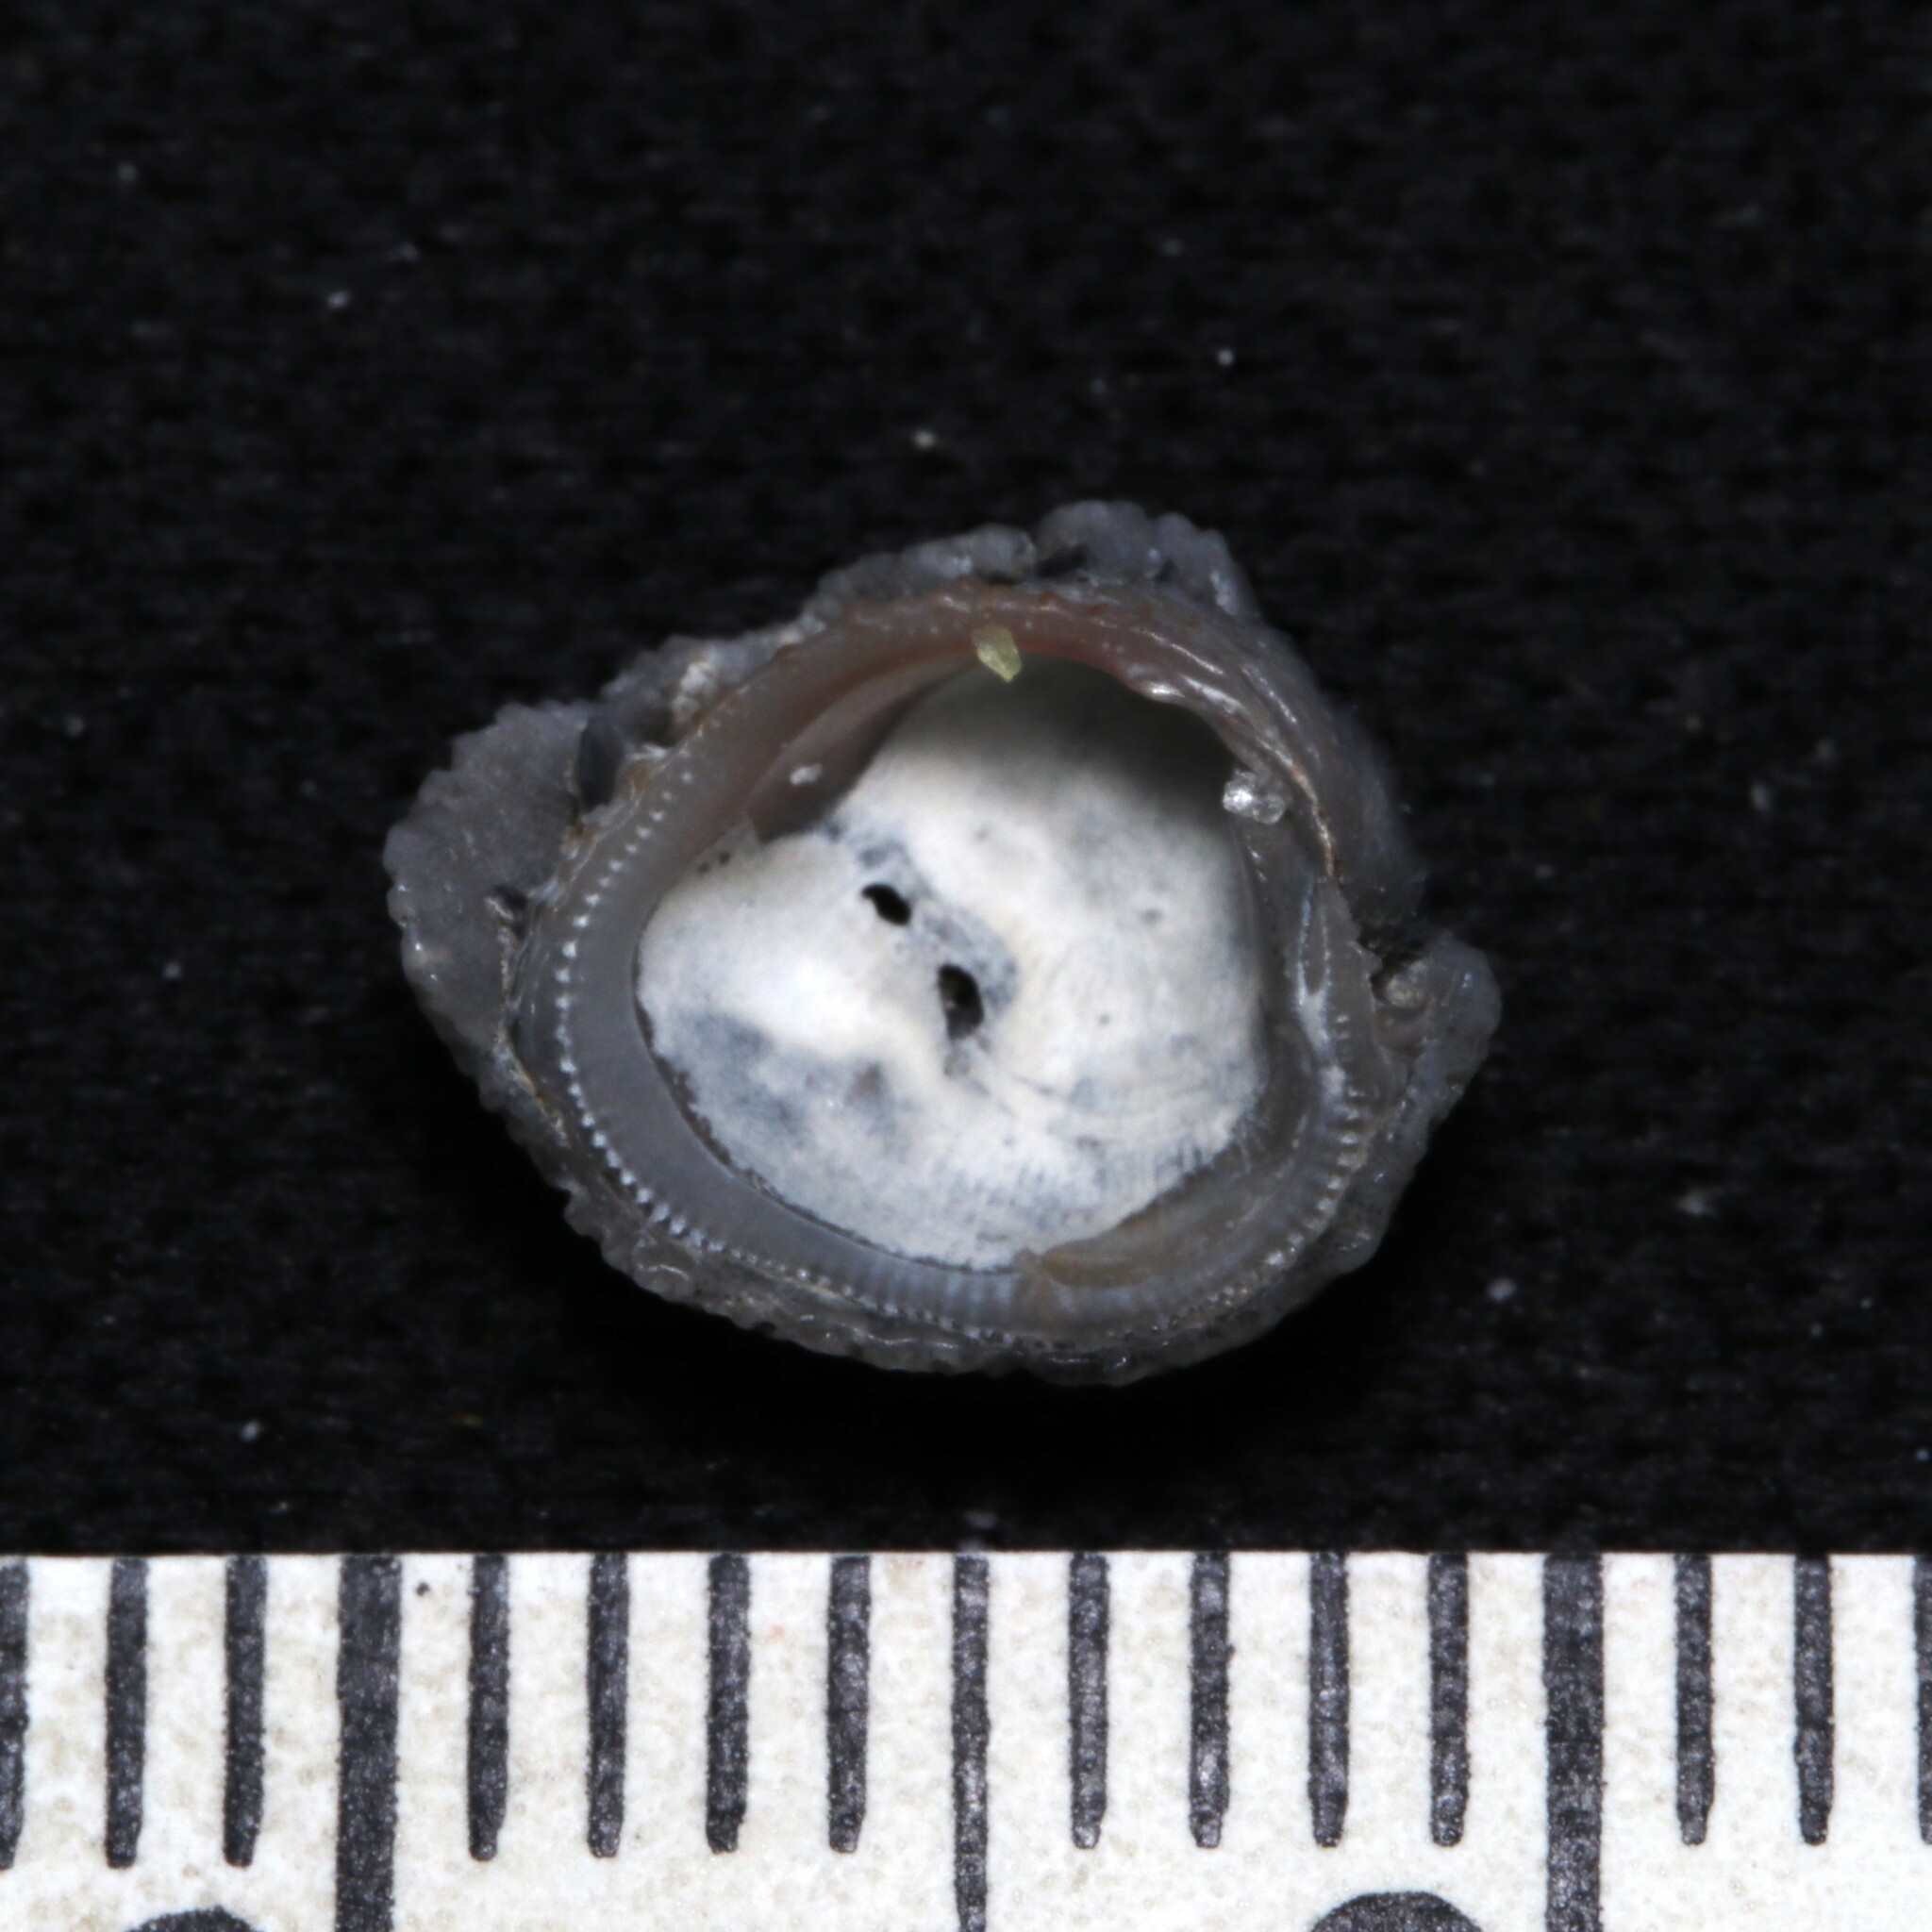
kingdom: Animalia
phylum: Bryozoa
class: Gymnolaemata
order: Cheilostomatida
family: Cupuladriidae
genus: Discoporella
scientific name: Discoporella umbellata
